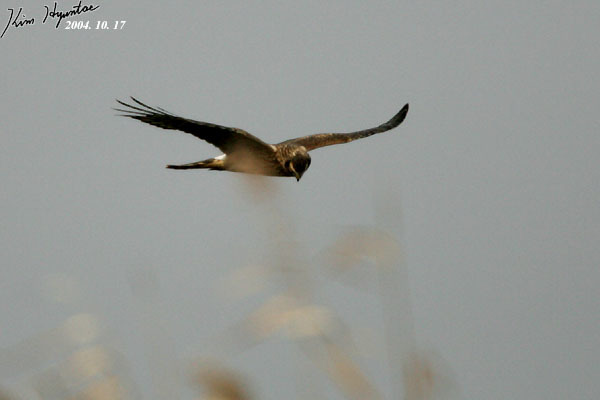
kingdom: Animalia
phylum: Chordata
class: Aves
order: Accipitriformes
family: Accipitridae
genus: Circus
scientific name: Circus cyaneus
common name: Hen harrier
